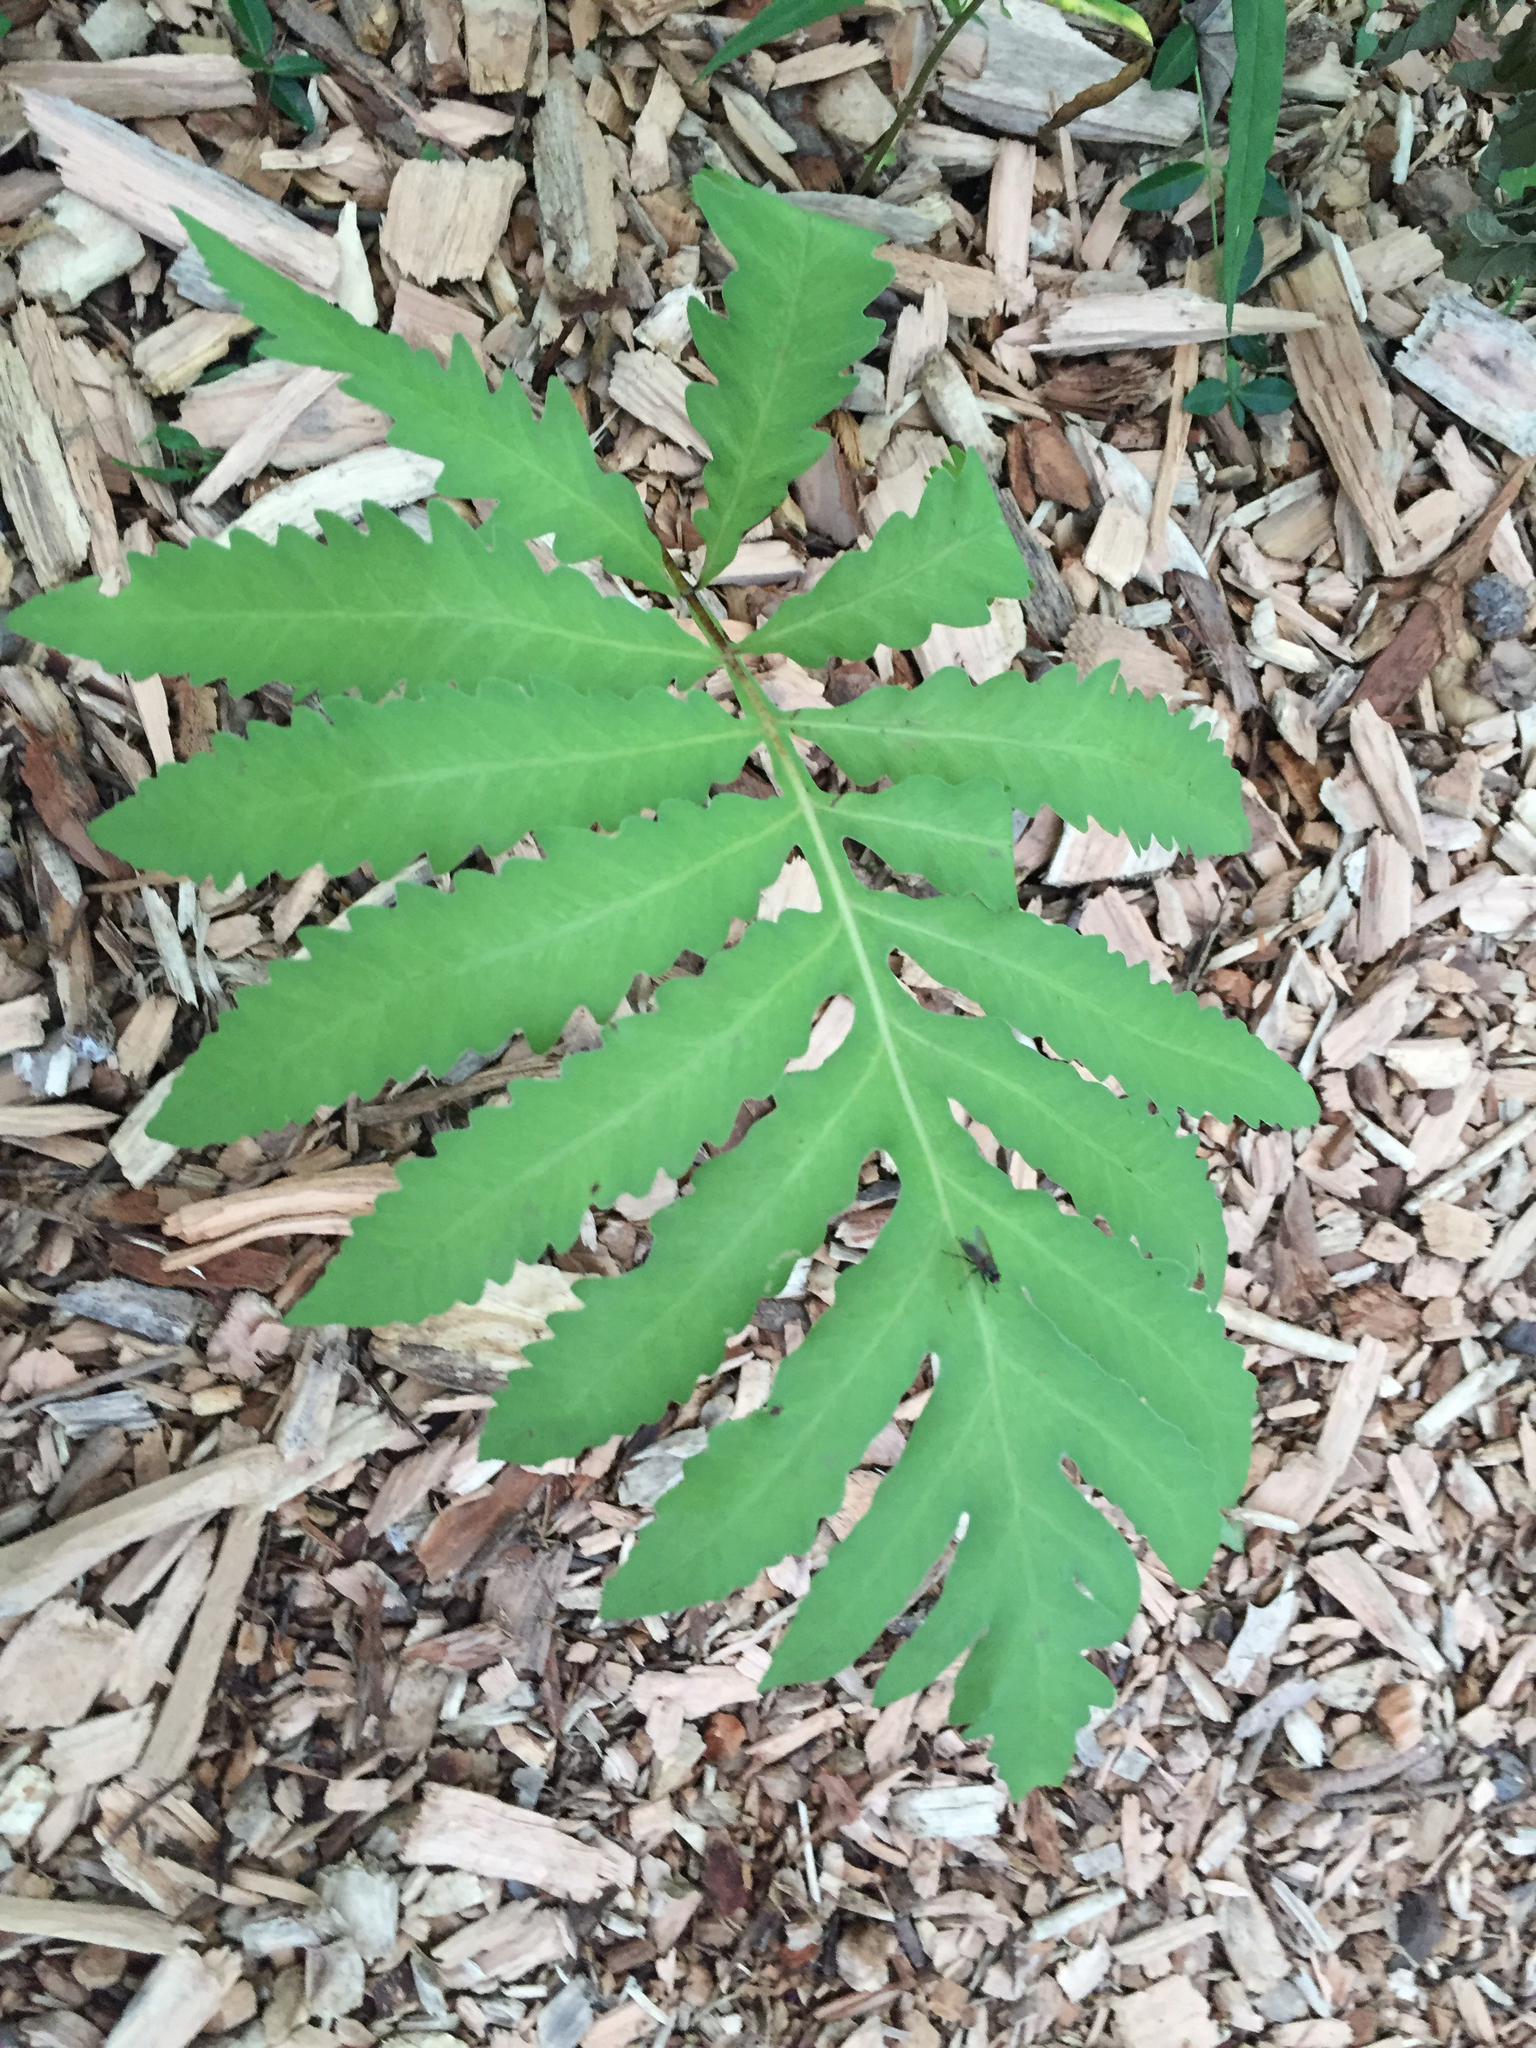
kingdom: Plantae
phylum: Tracheophyta
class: Polypodiopsida
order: Polypodiales
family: Onocleaceae
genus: Onoclea
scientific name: Onoclea sensibilis
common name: Sensitive fern
